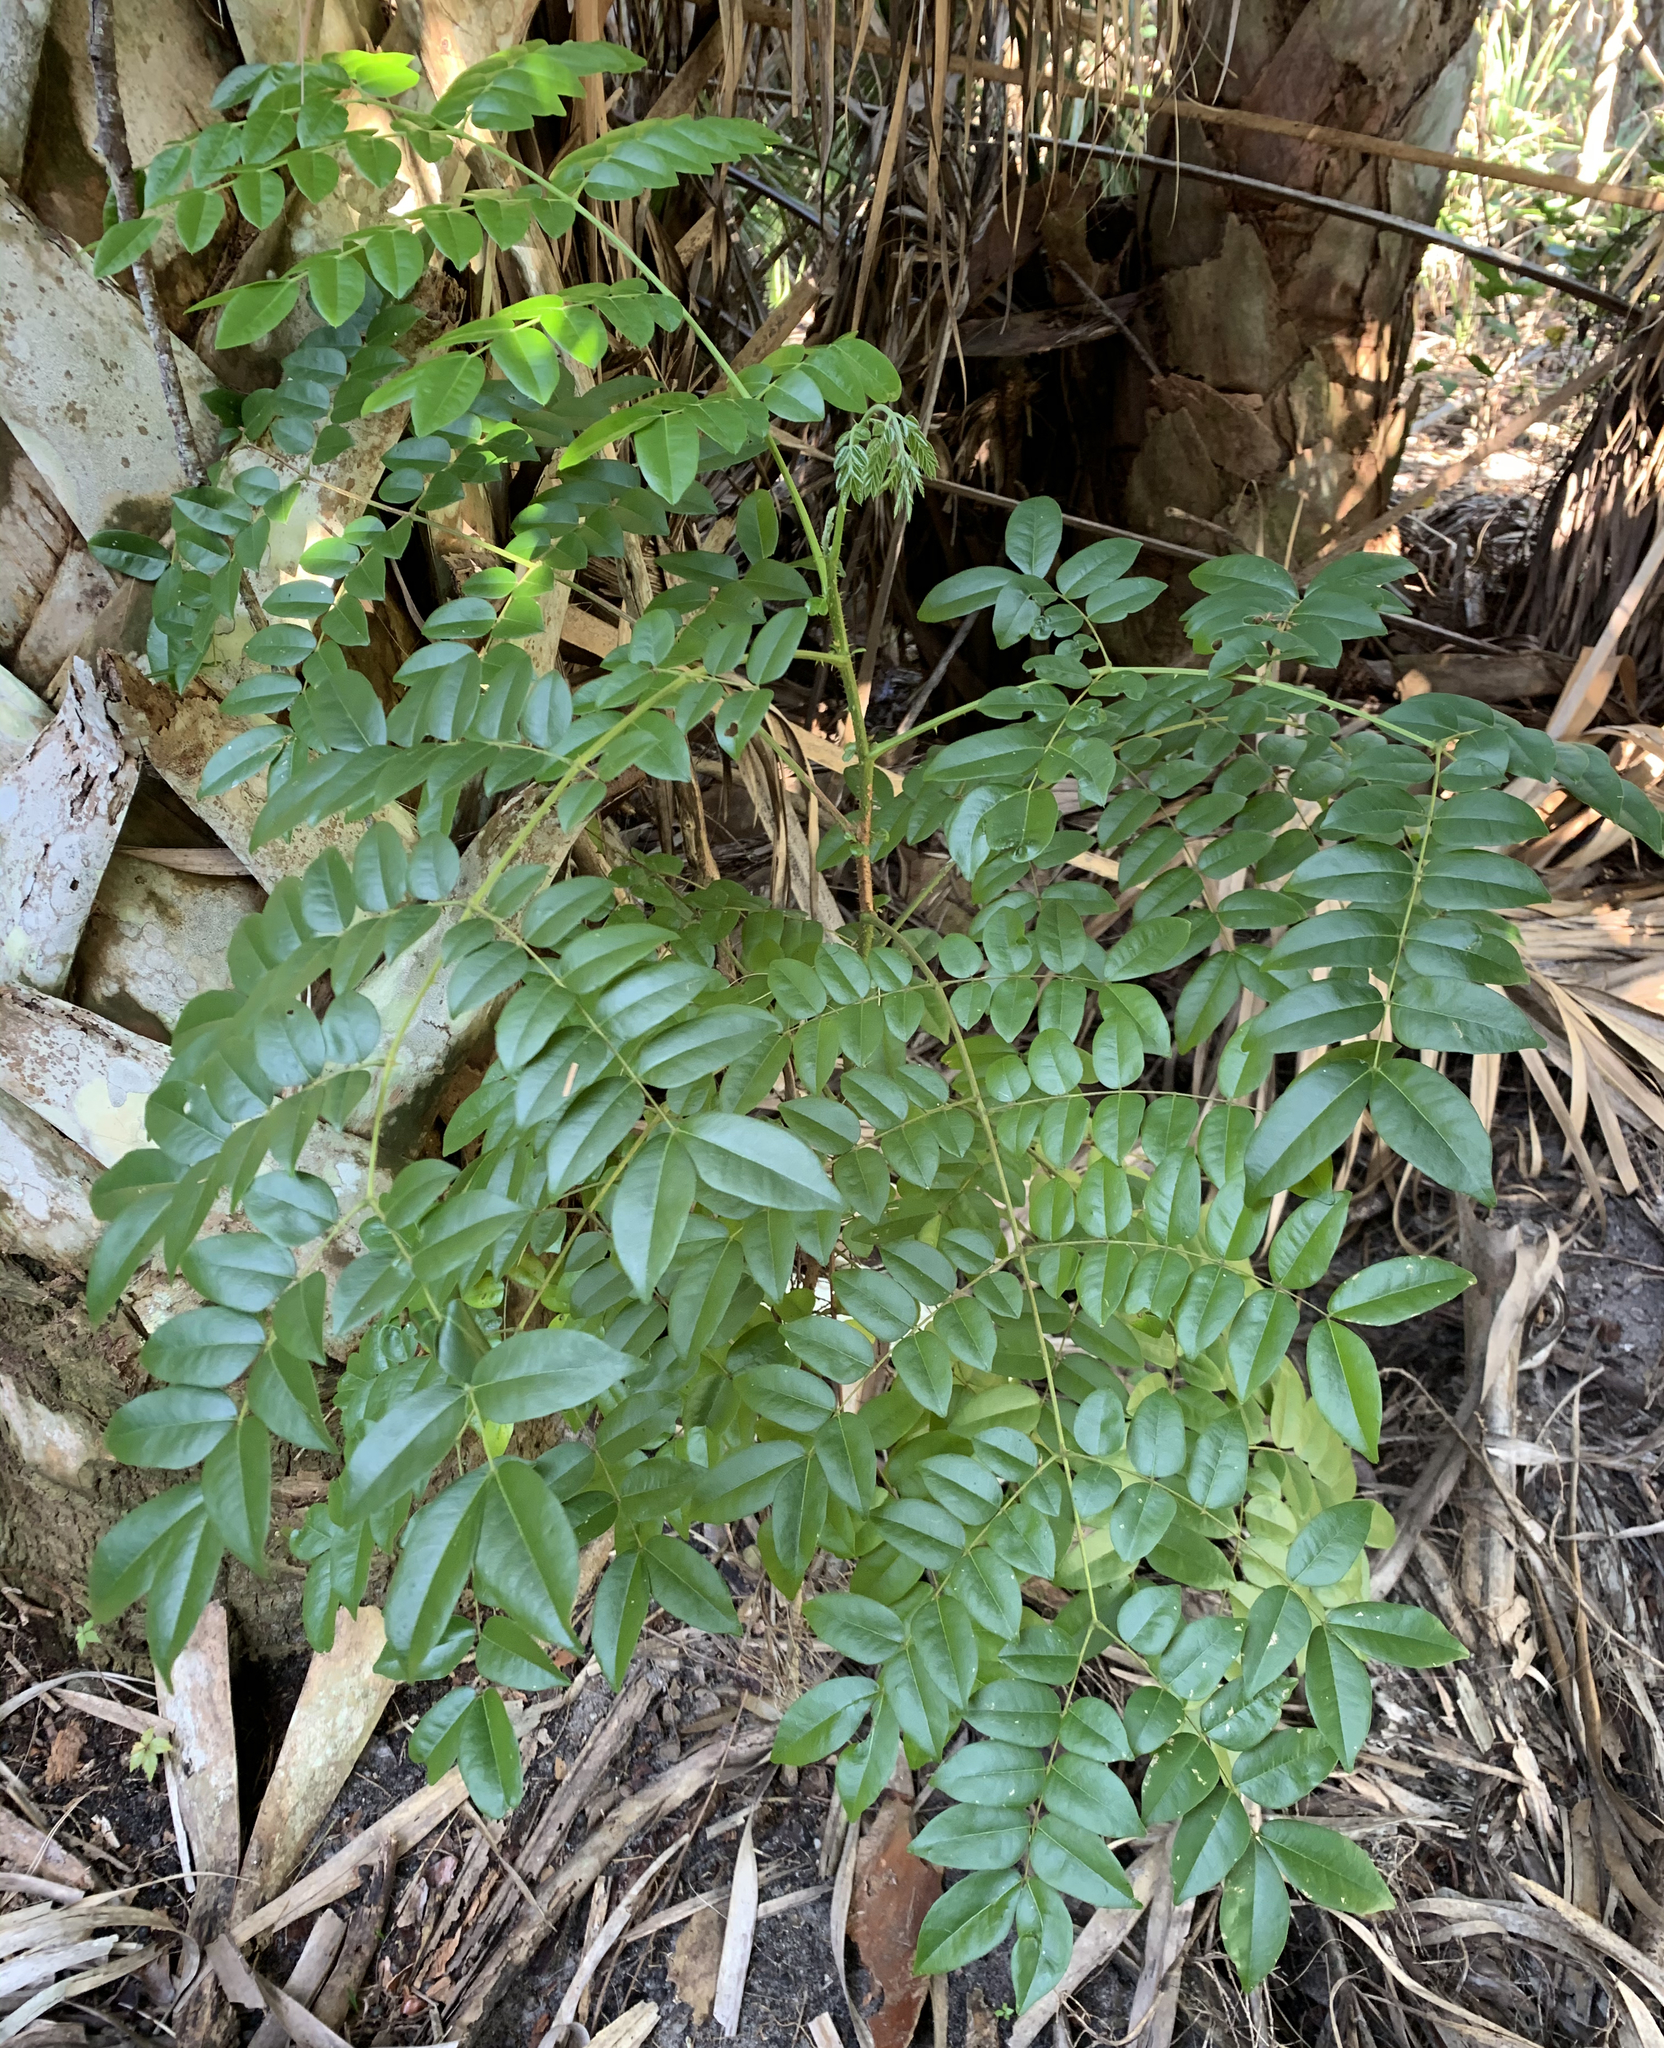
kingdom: Plantae
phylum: Tracheophyta
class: Magnoliopsida
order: Fabales
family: Fabaceae
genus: Guilandina
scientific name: Guilandina bonduc
